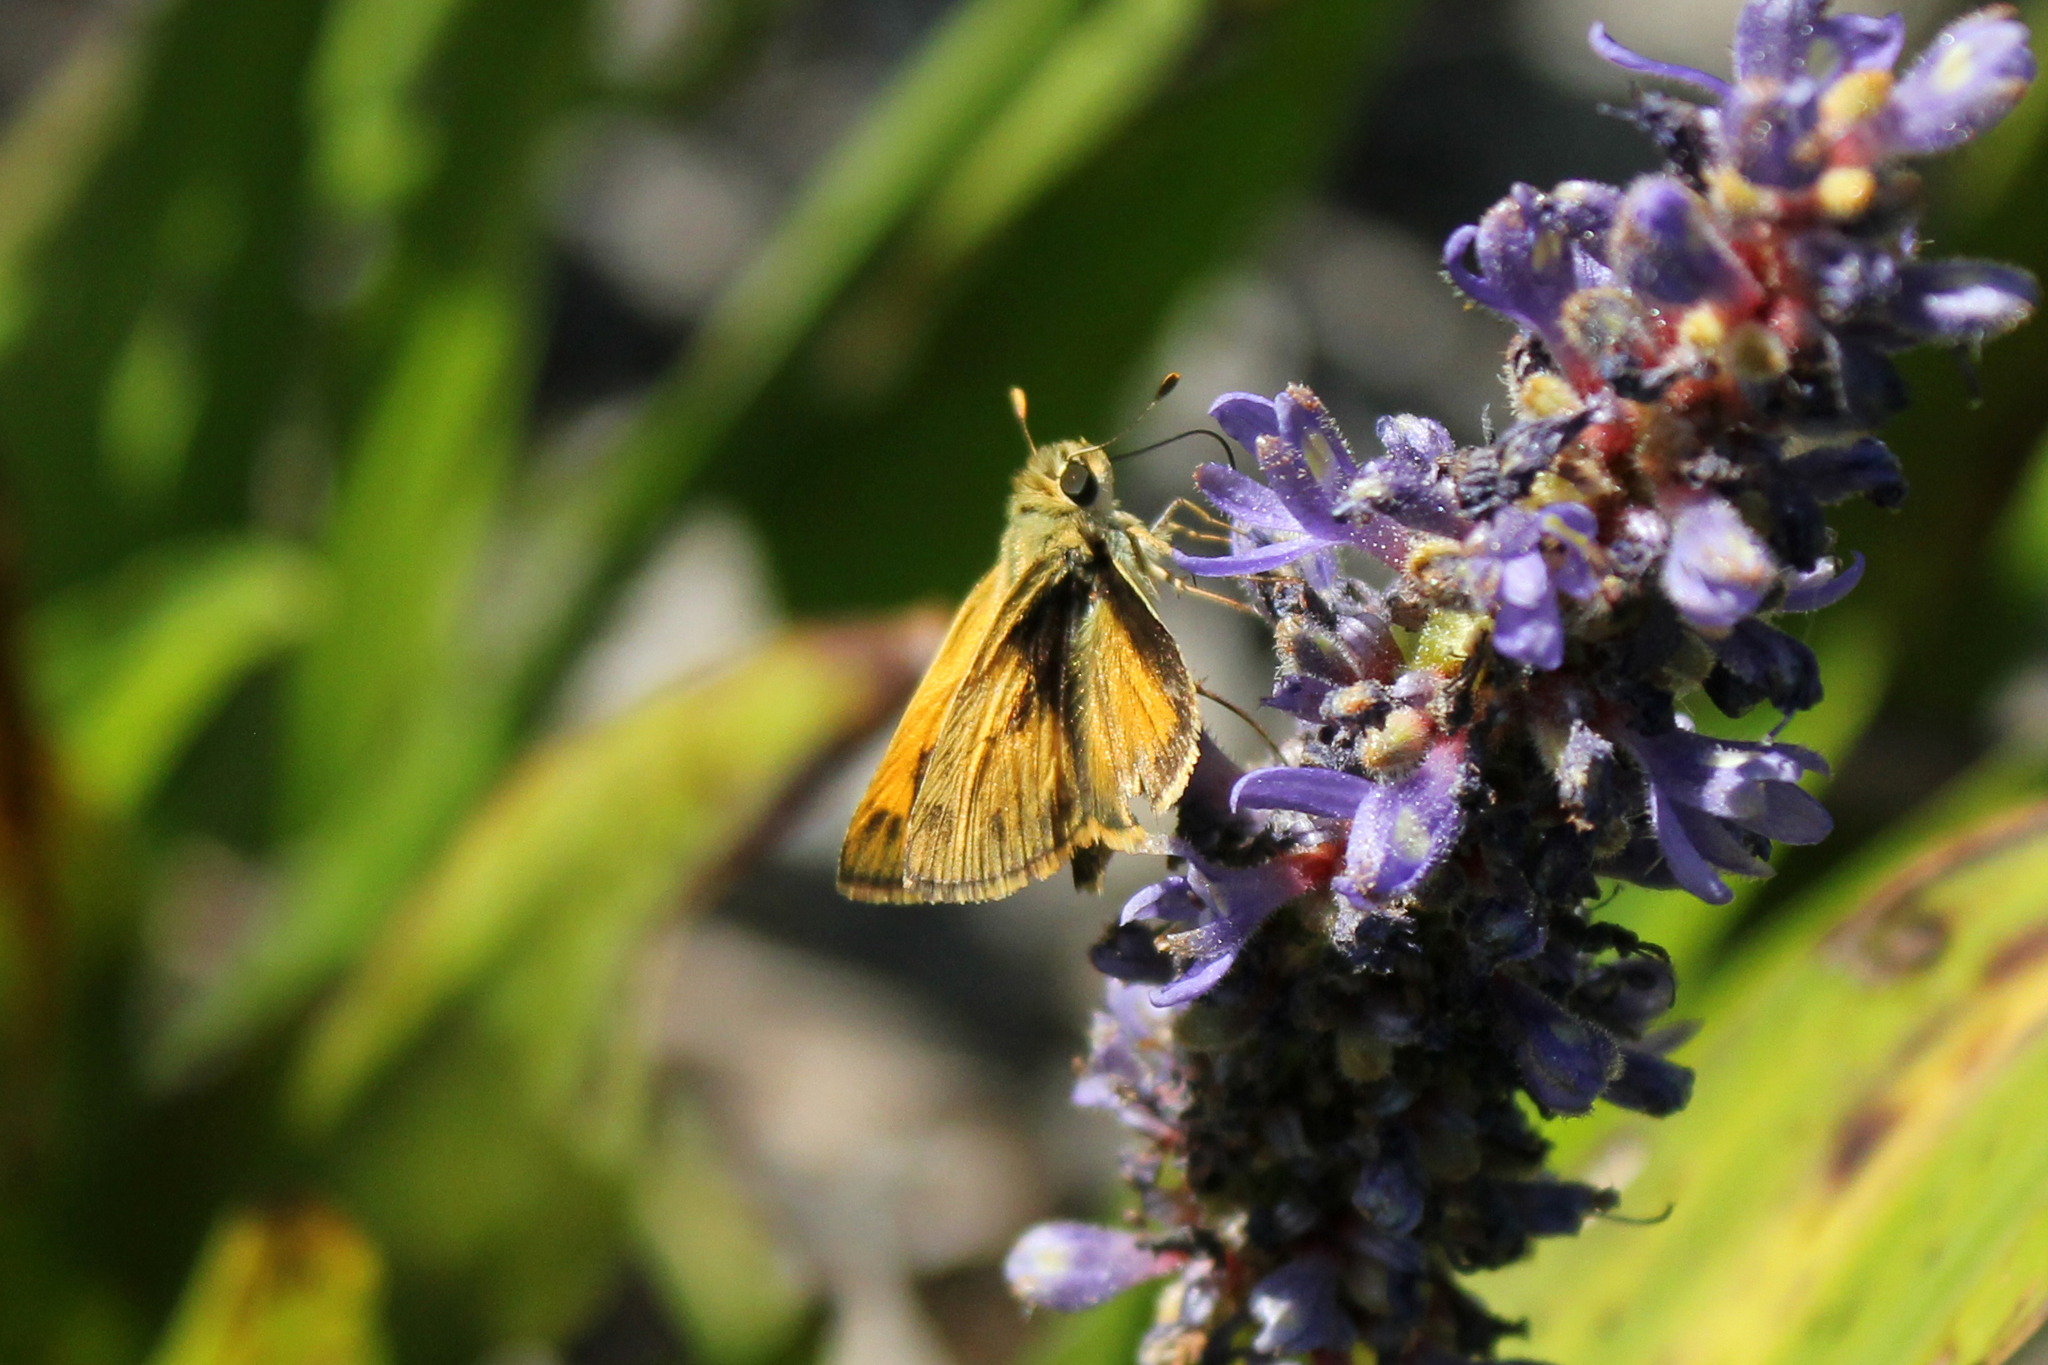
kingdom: Animalia
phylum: Arthropoda
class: Insecta
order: Lepidoptera
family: Hesperiidae
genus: Polites
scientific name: Polites vibex
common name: Whirlabout
